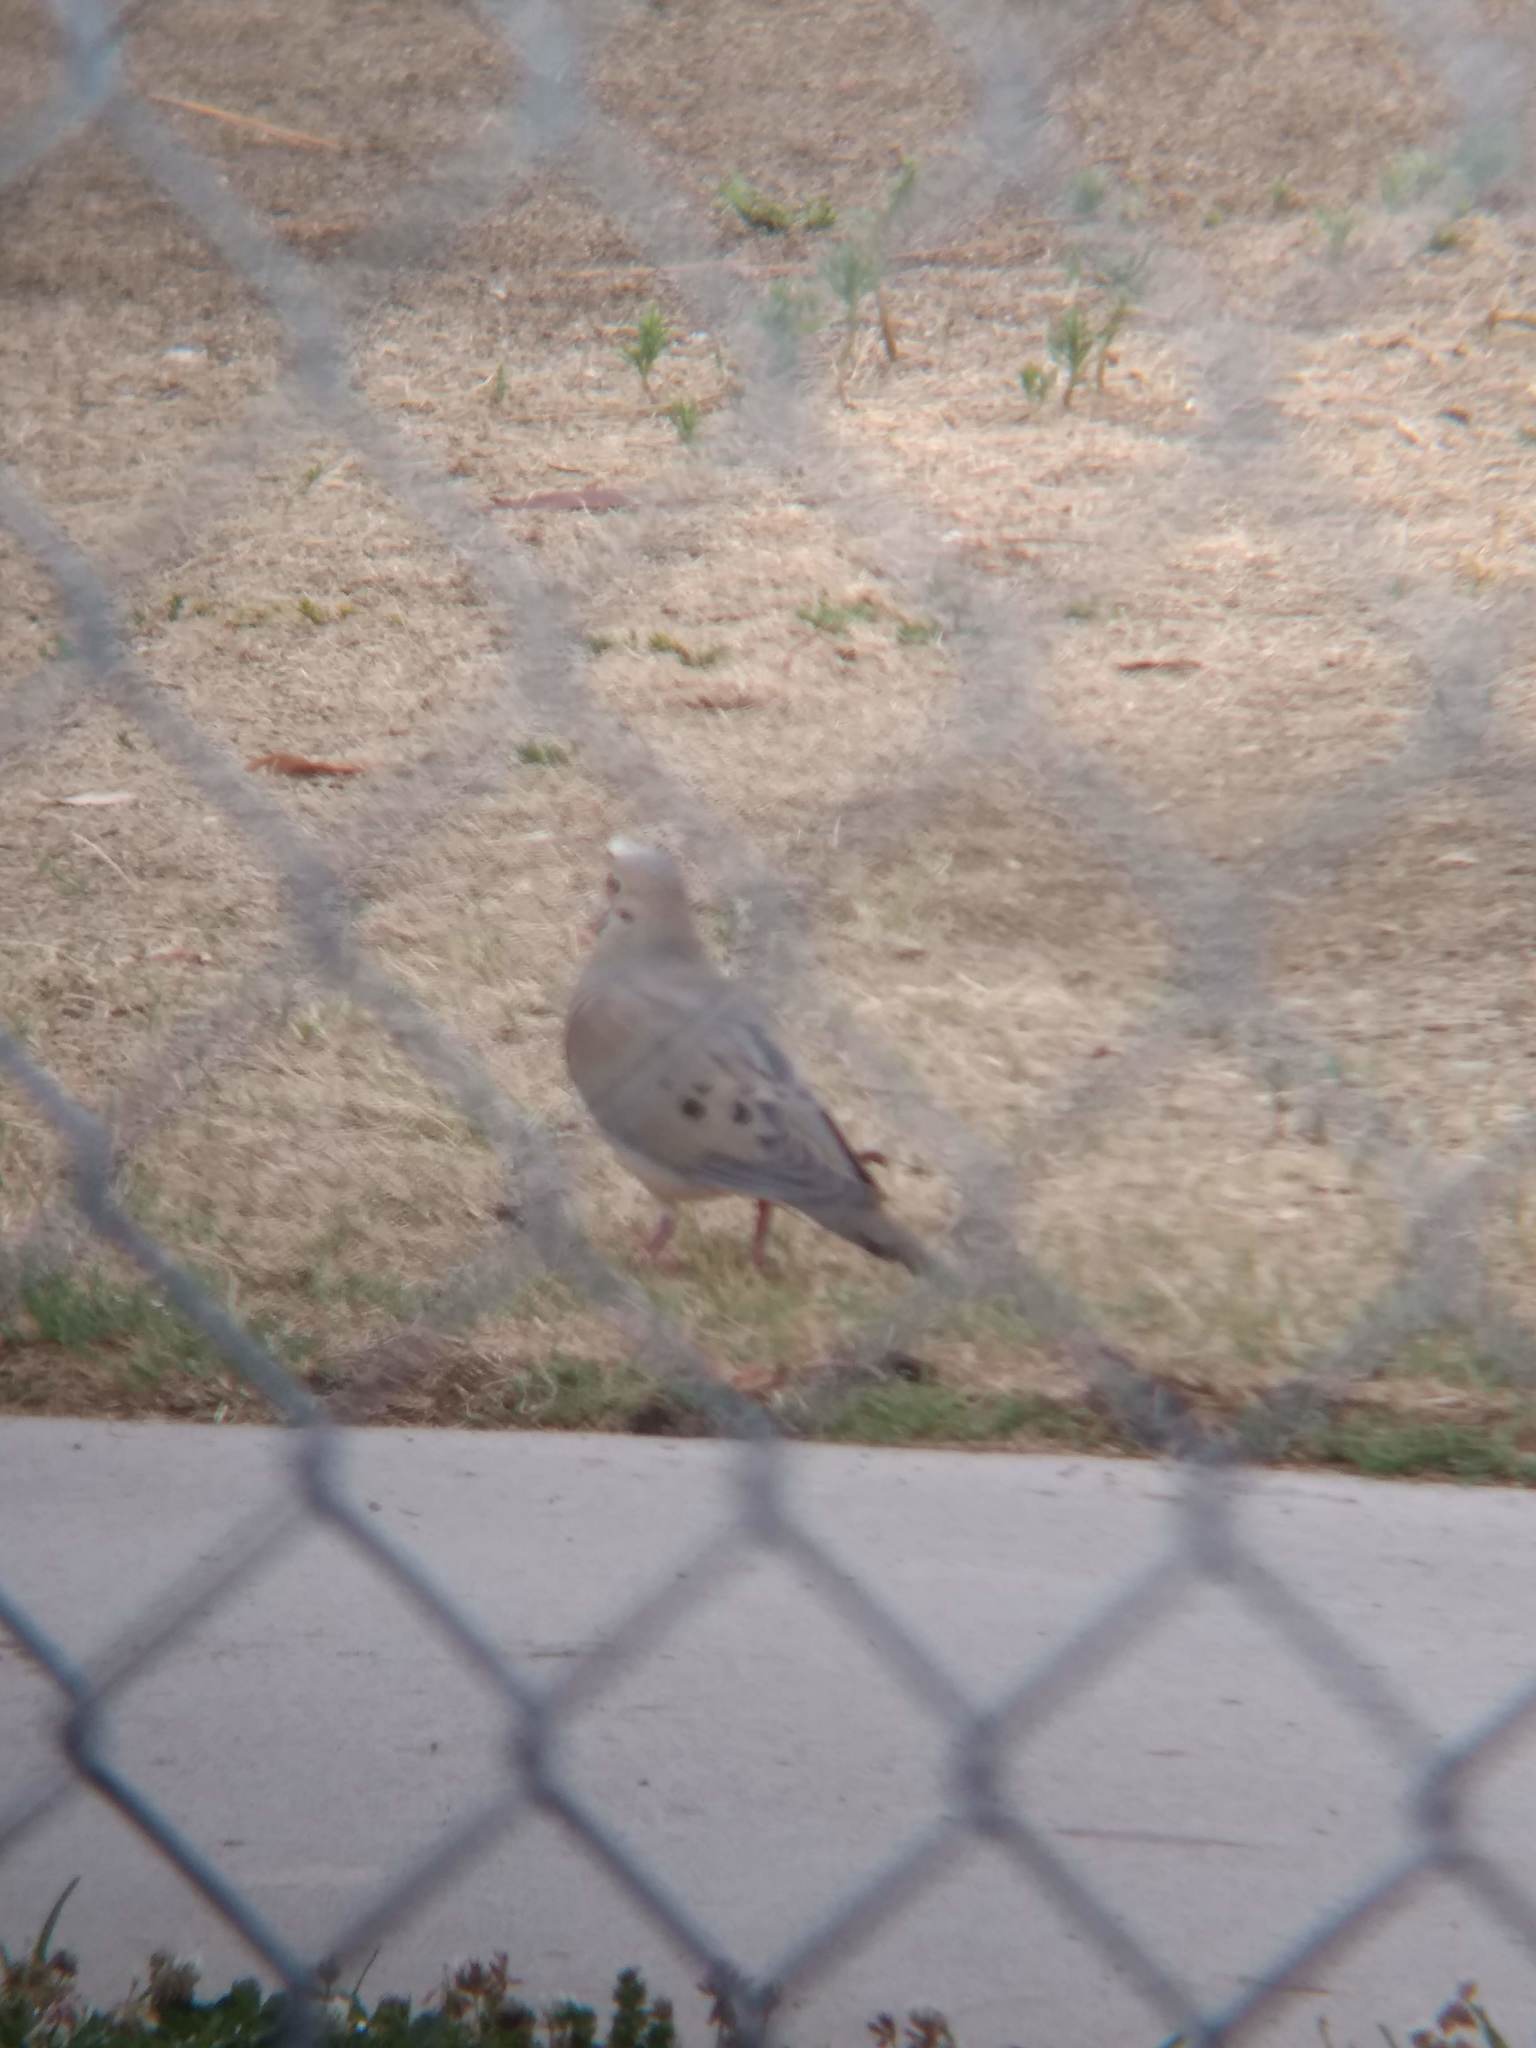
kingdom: Animalia
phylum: Chordata
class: Aves
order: Columbiformes
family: Columbidae
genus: Zenaida
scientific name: Zenaida macroura
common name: Mourning dove
